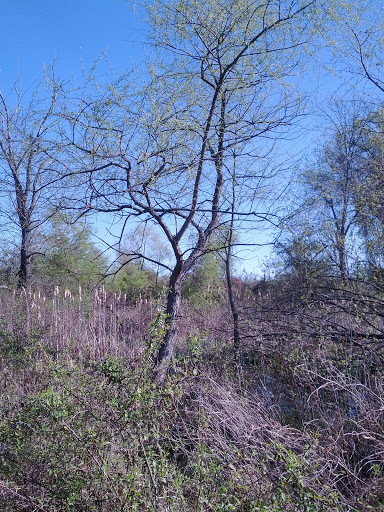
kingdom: Animalia
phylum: Chordata
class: Aves
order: Passeriformes
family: Cardinalidae
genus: Cardinalis
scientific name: Cardinalis cardinalis
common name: Northern cardinal
